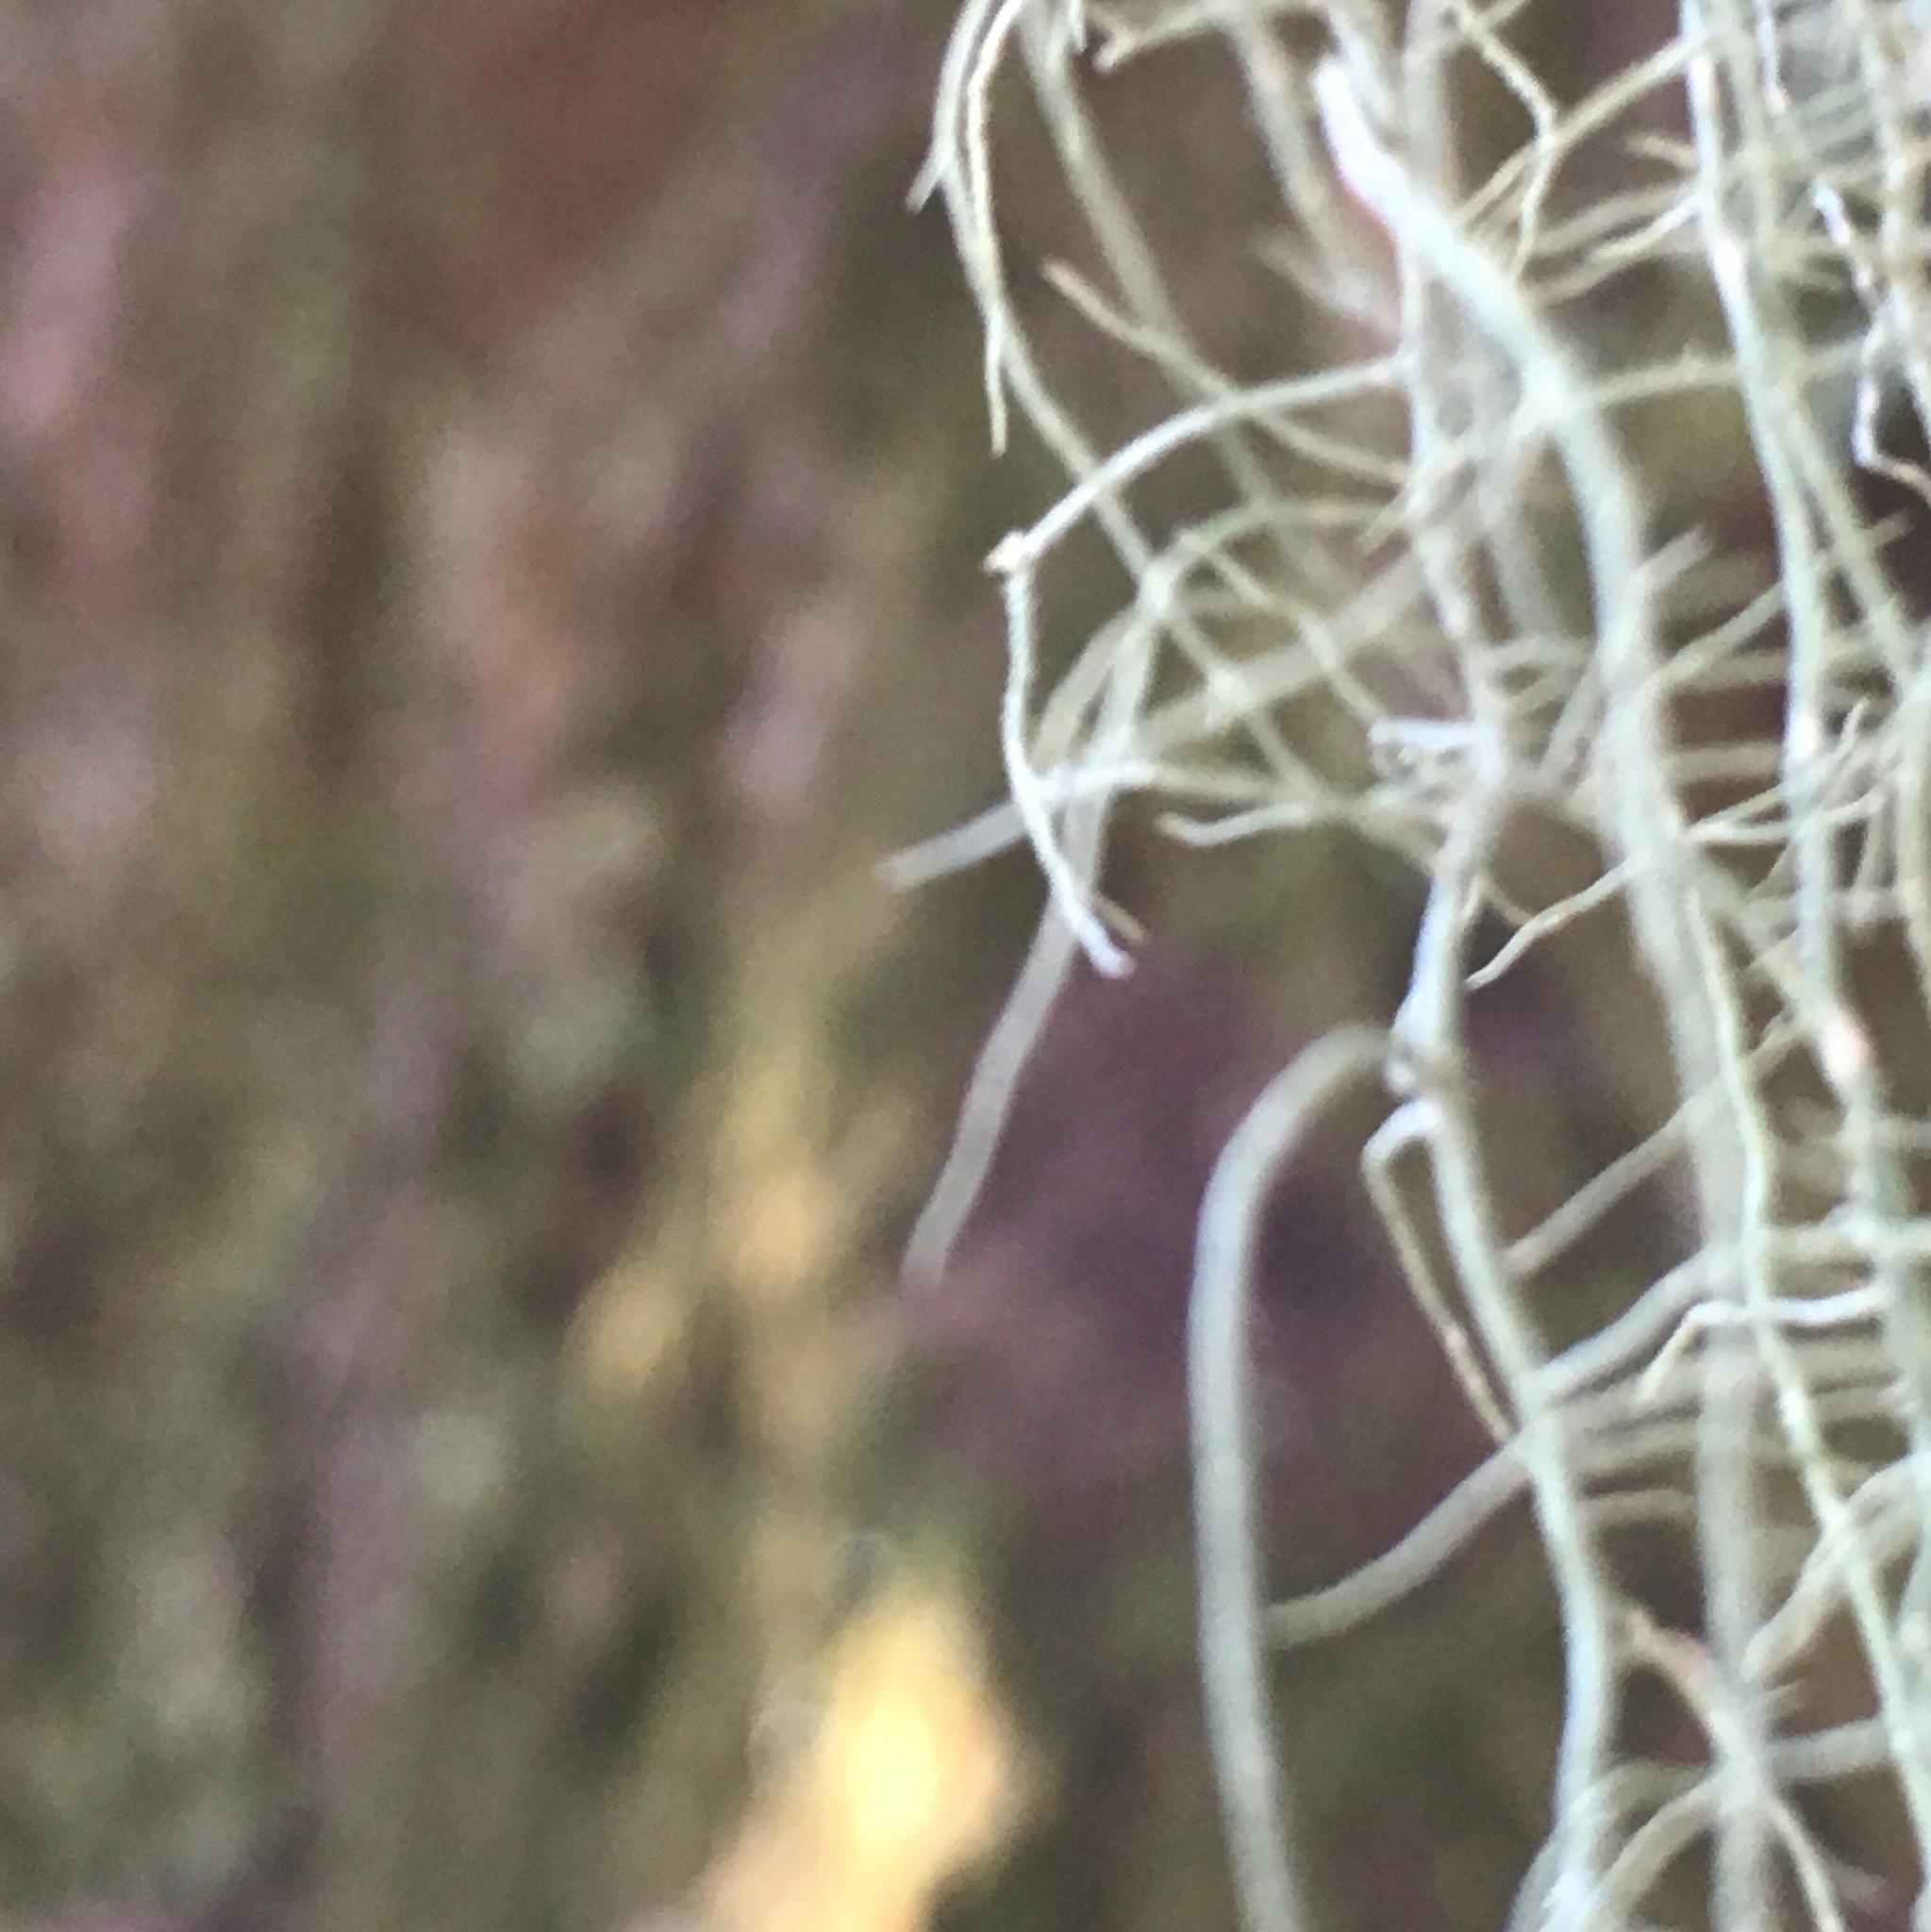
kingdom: Fungi
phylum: Ascomycota
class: Lecanoromycetes
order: Lecanorales
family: Ramalinaceae
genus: Ramalina
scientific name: Ramalina menziesii
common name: Lace lichen
